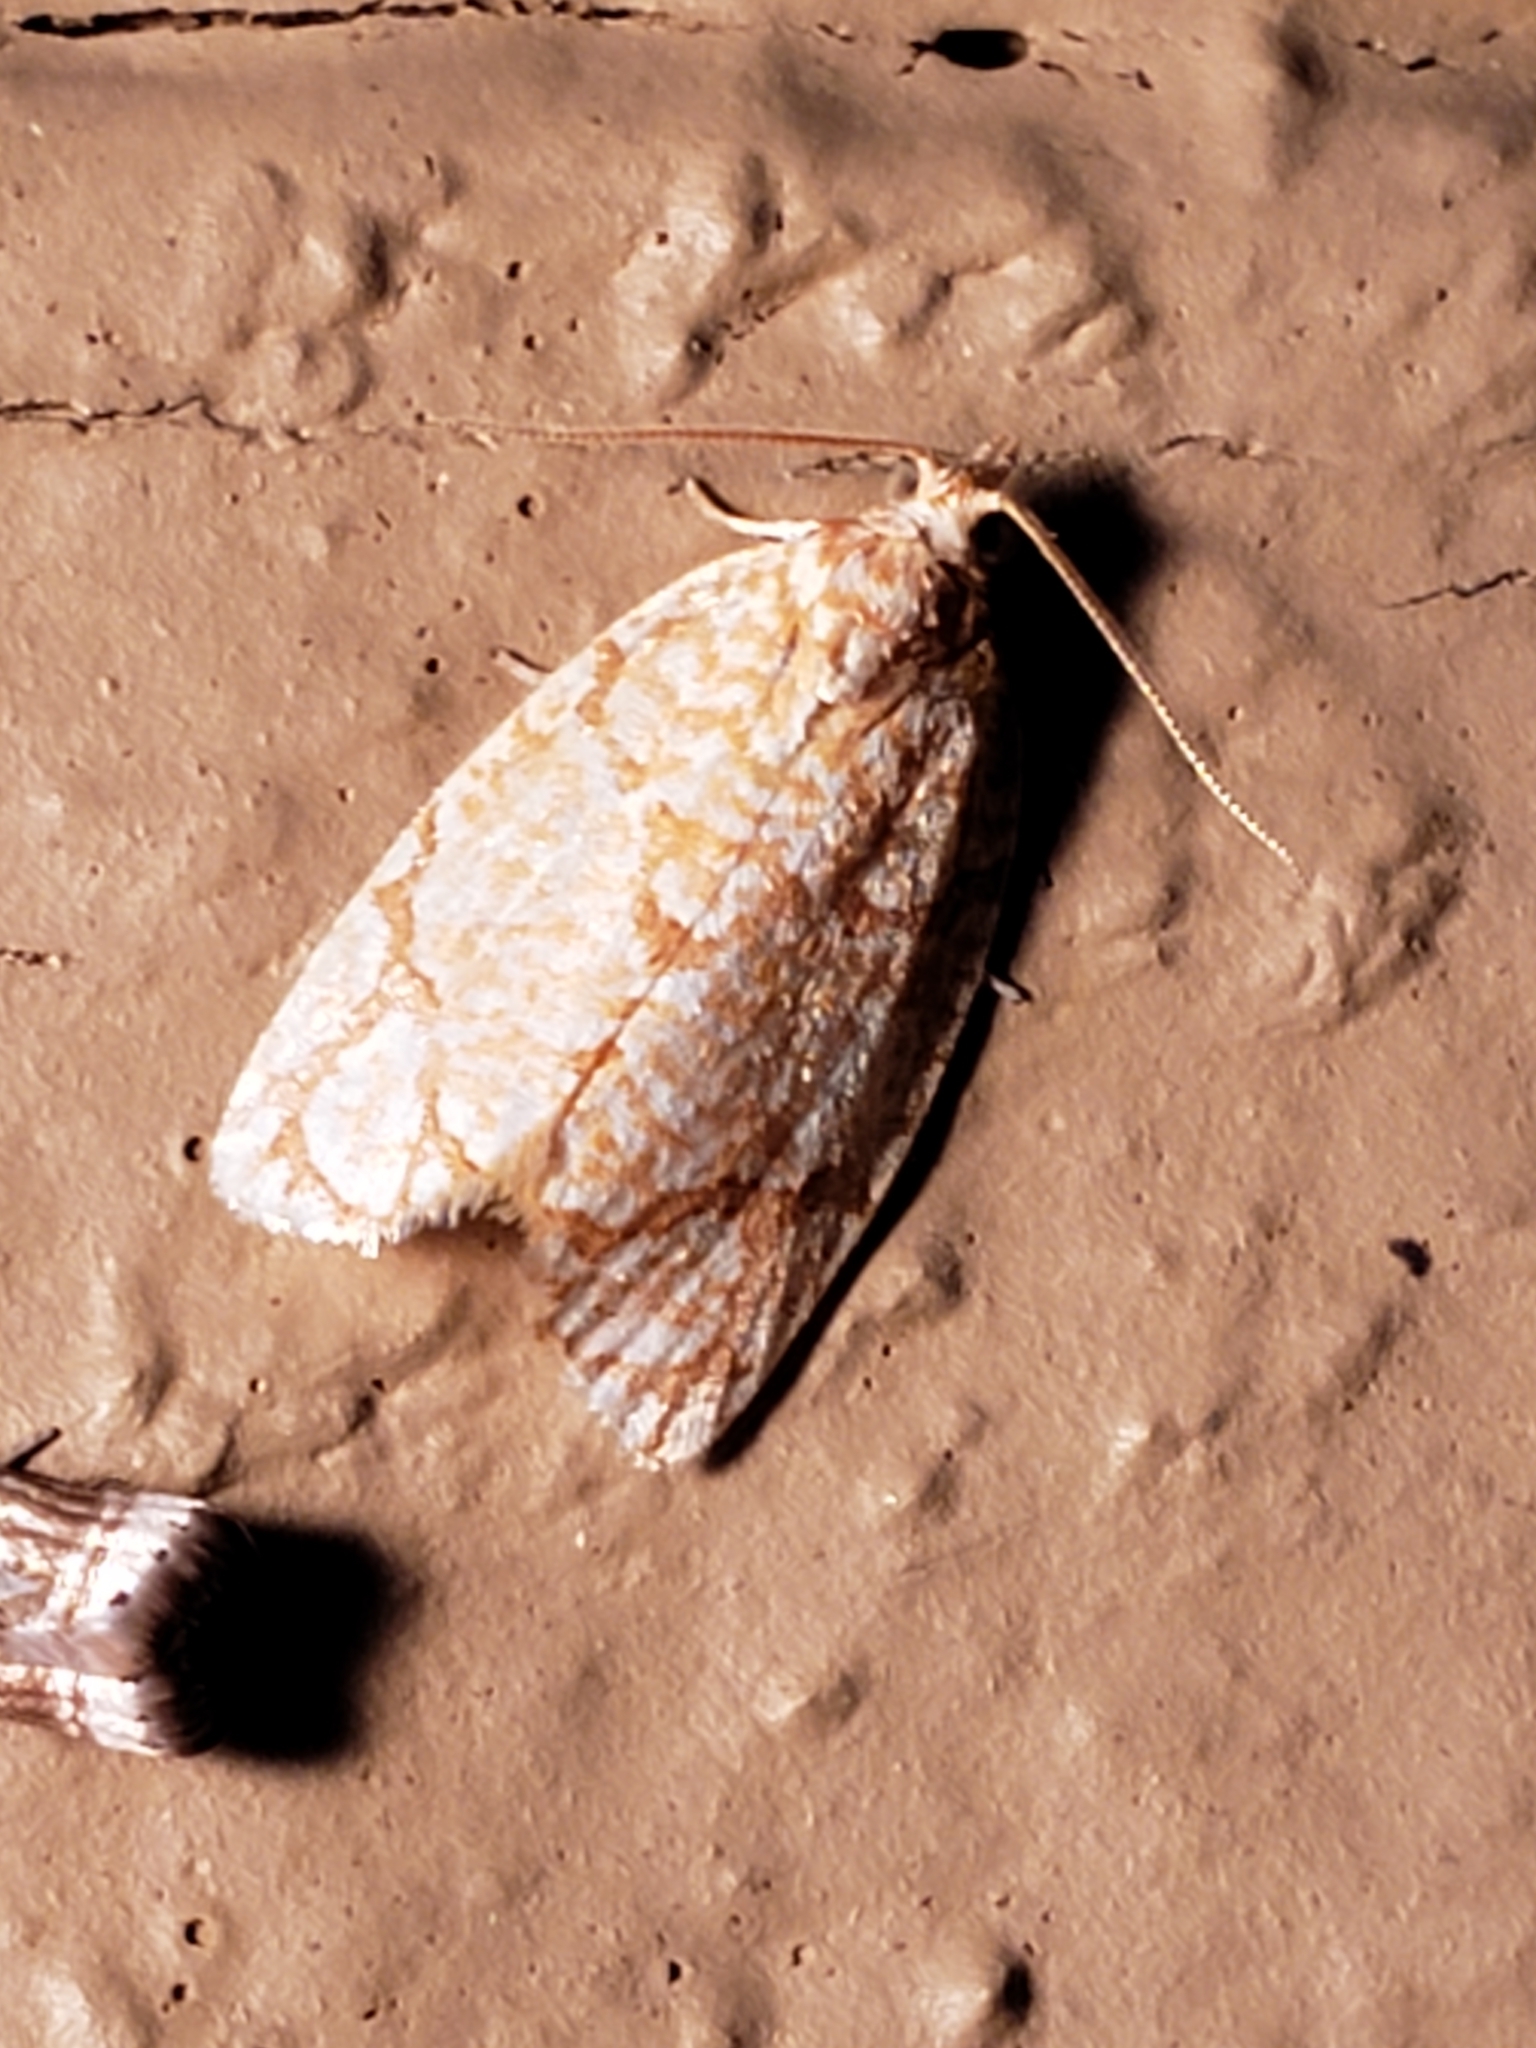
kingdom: Animalia
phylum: Arthropoda
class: Insecta
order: Lepidoptera
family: Tortricidae
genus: Argyrotaenia
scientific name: Argyrotaenia quercifoliana
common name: Yellow-winged oak leafroller moth
